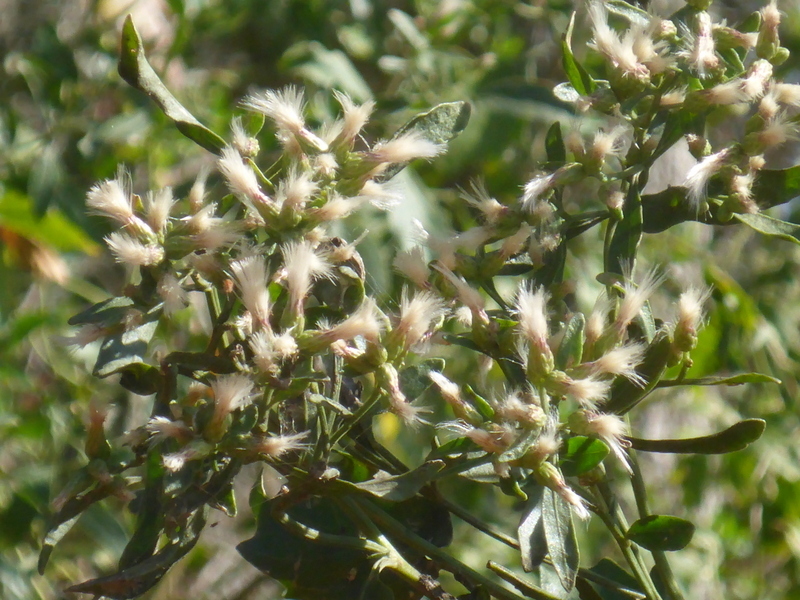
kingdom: Plantae
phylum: Tracheophyta
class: Magnoliopsida
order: Asterales
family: Asteraceae
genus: Baccharis
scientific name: Baccharis halimifolia
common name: Eastern baccharis
